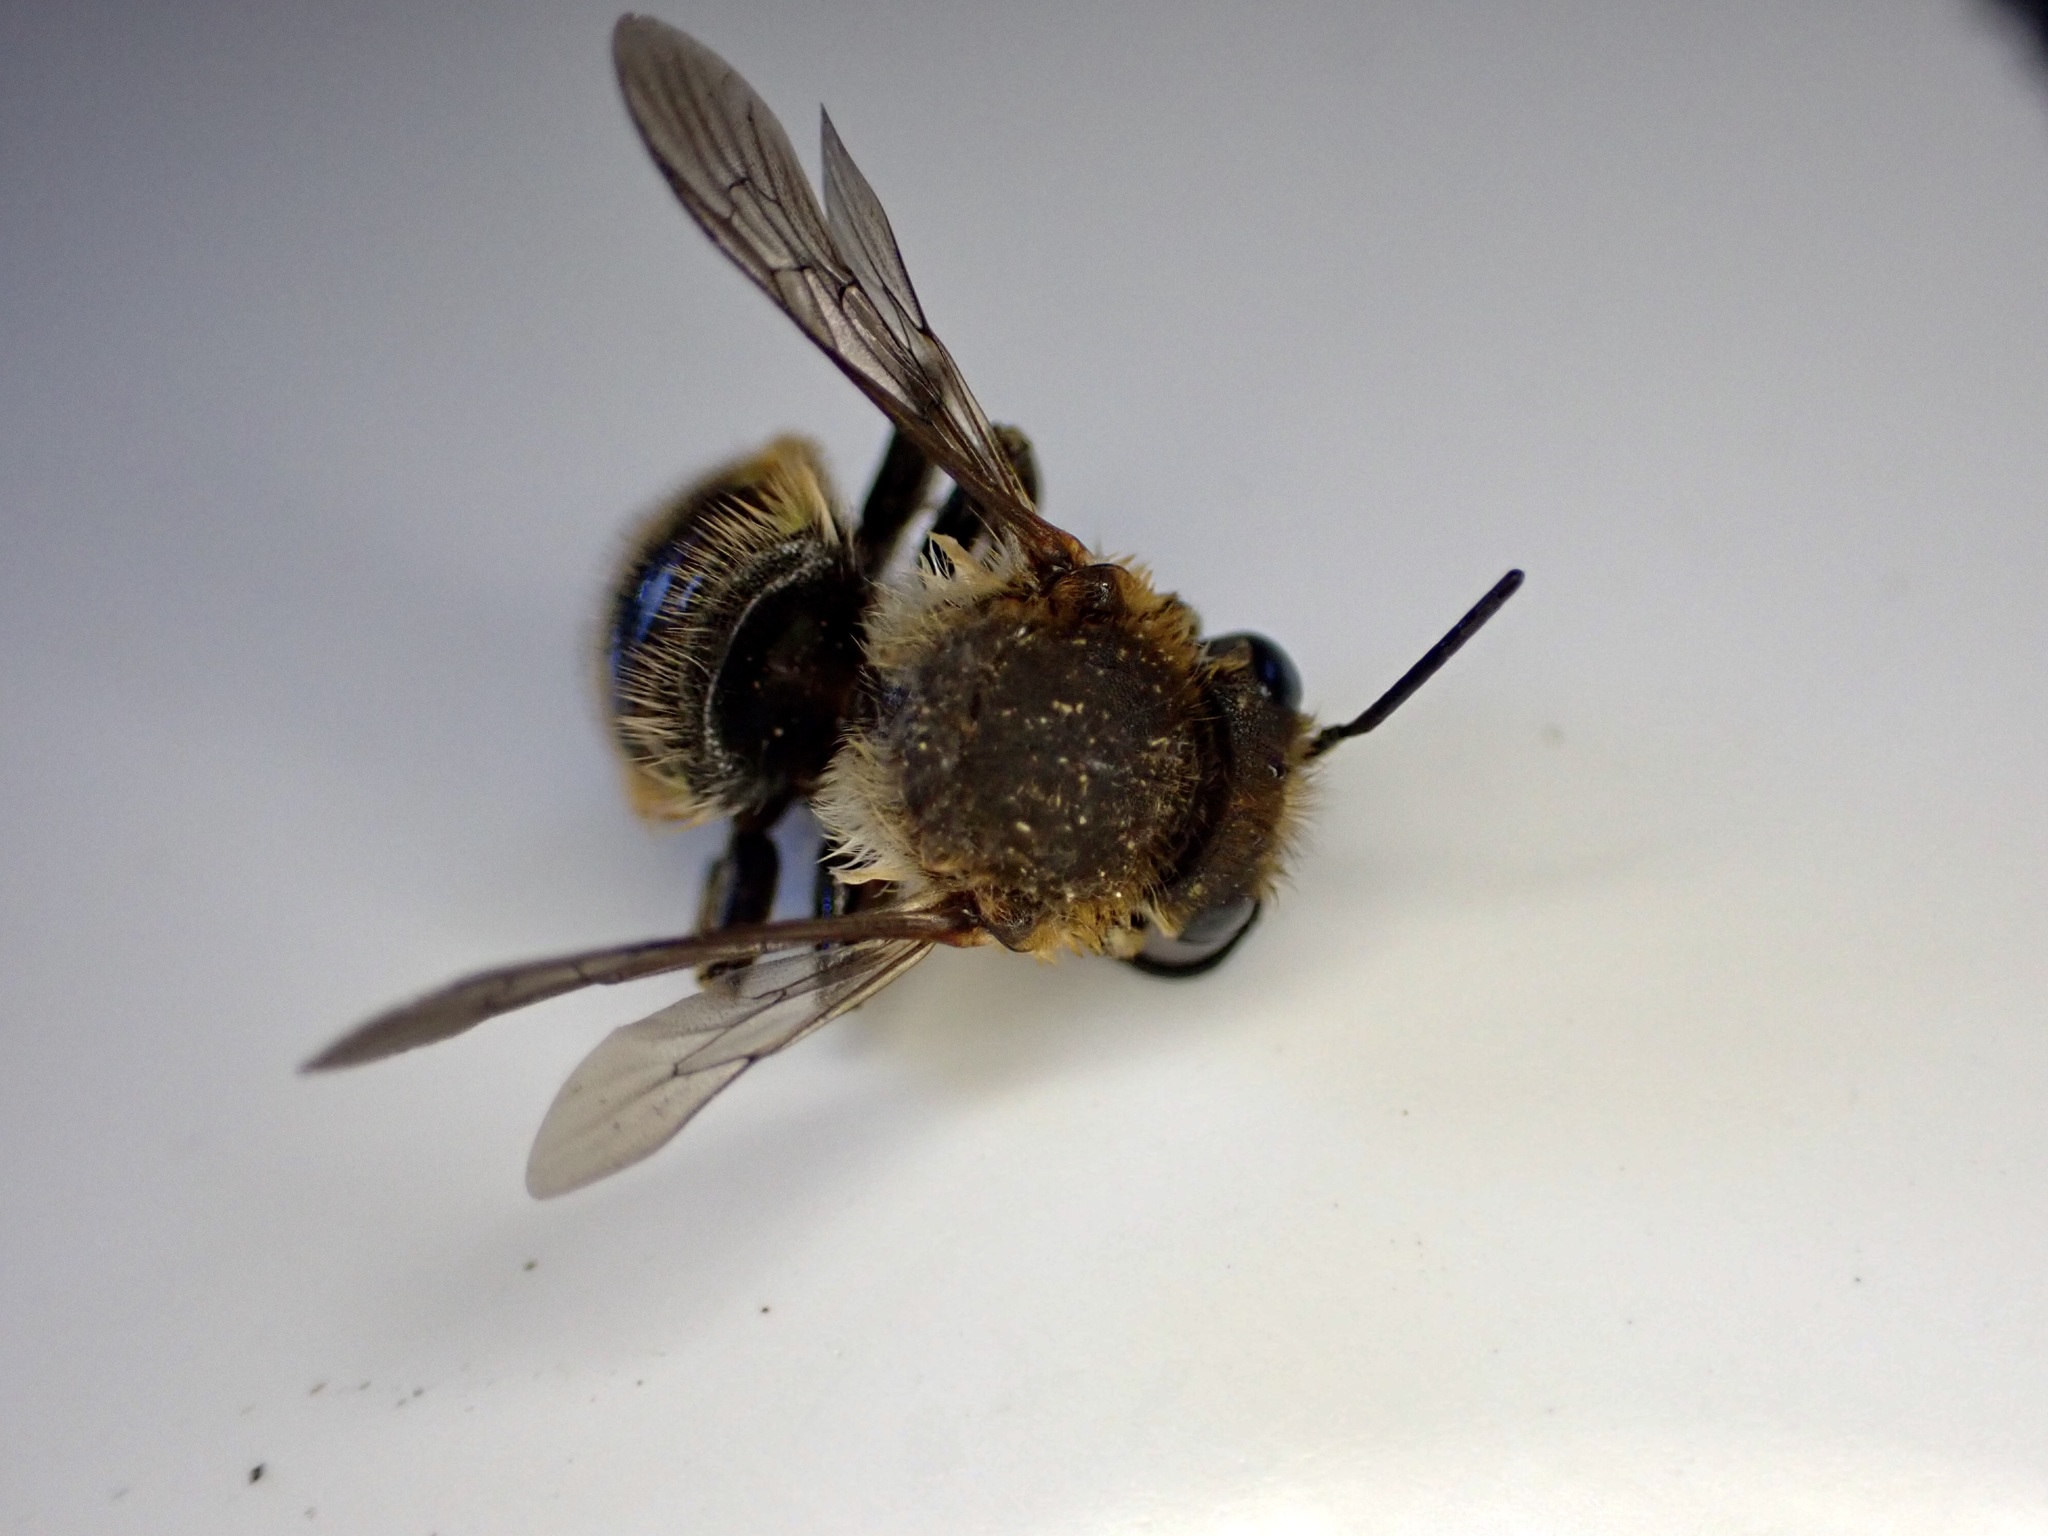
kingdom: Animalia
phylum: Arthropoda
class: Insecta
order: Hymenoptera
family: Megachilidae
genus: Anthidium
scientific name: Anthidium manicatum
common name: Wool carder bee
